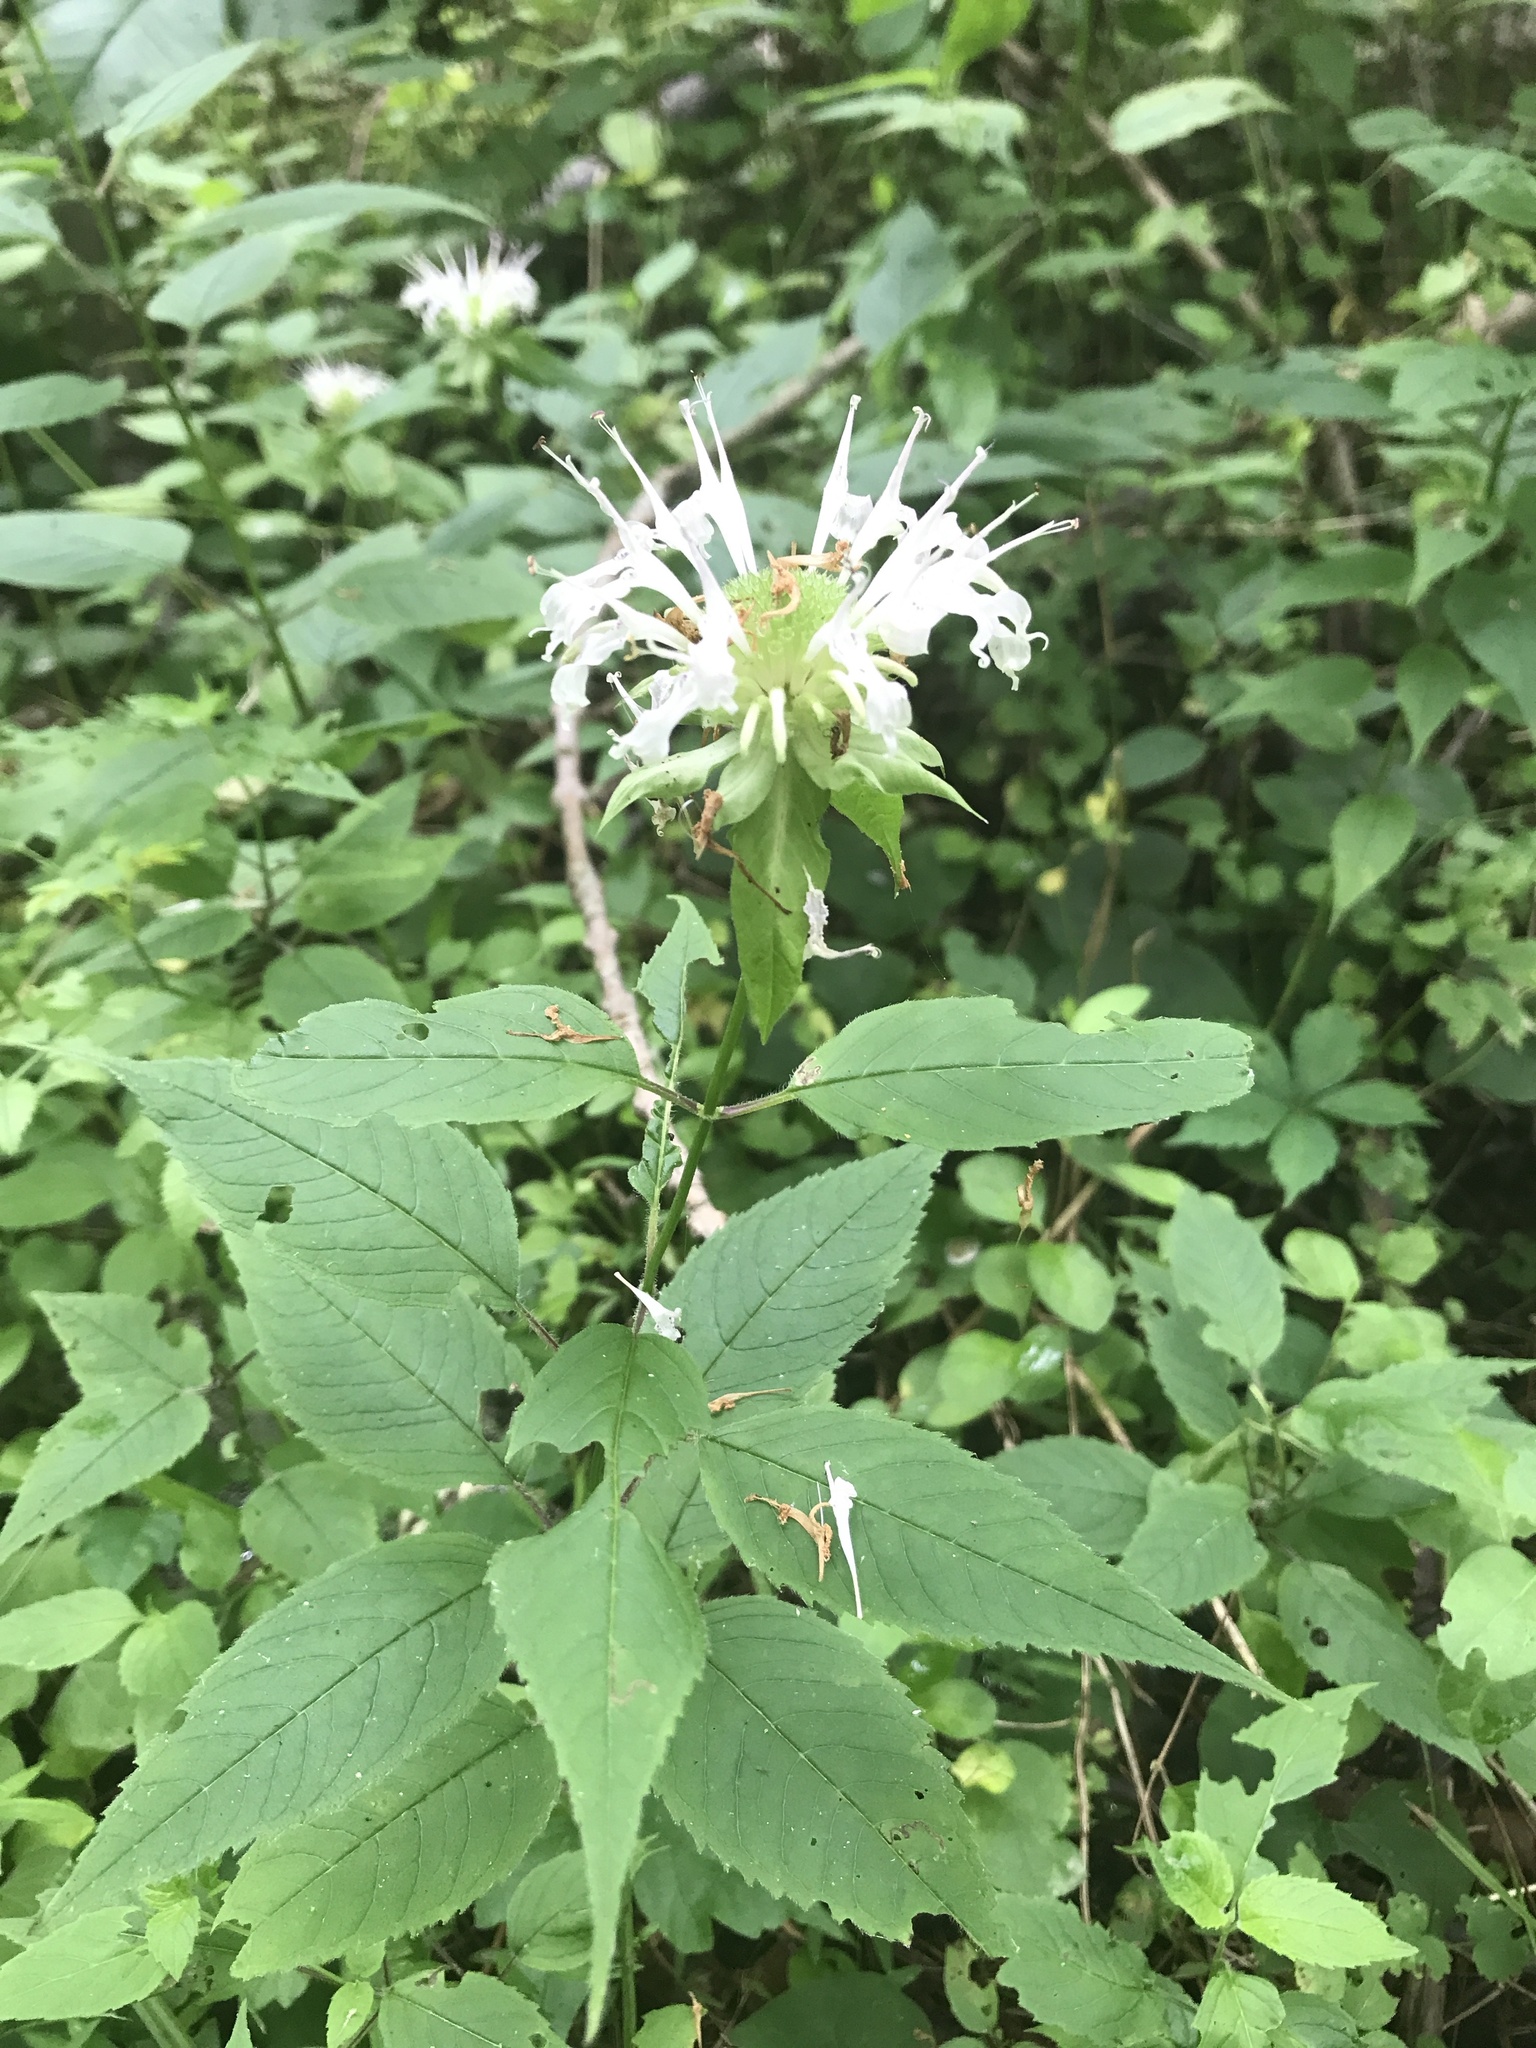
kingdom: Plantae
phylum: Tracheophyta
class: Magnoliopsida
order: Lamiales
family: Lamiaceae
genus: Monarda
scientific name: Monarda clinopodia
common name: Basil beebalm
